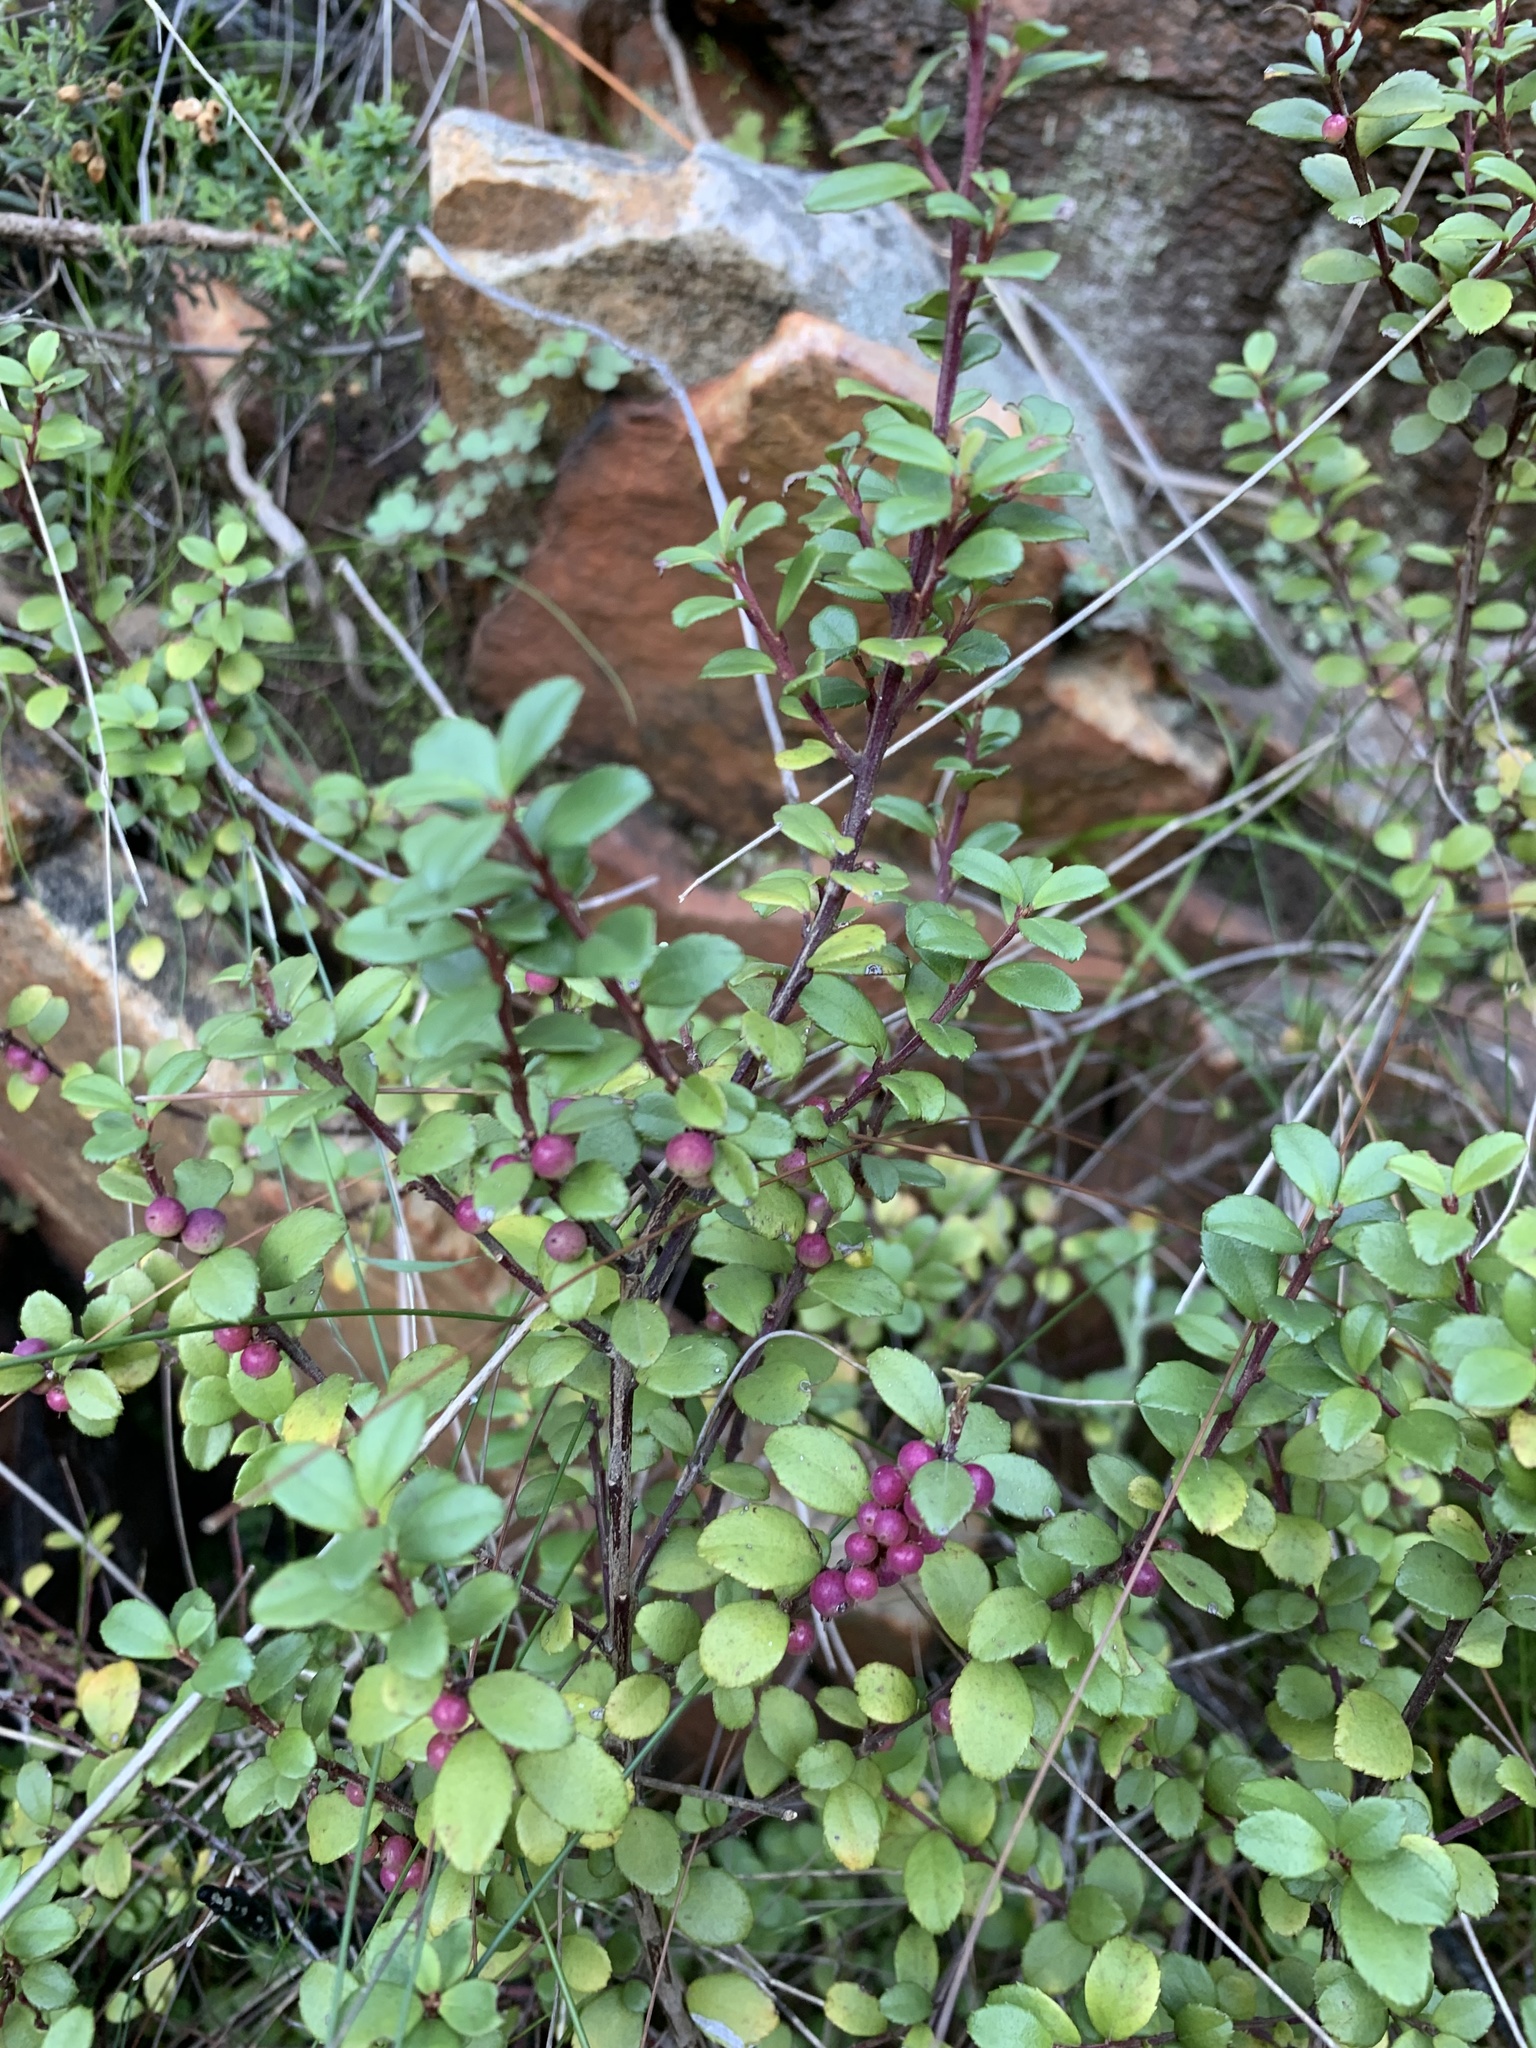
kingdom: Plantae
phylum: Tracheophyta
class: Magnoliopsida
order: Ericales
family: Primulaceae
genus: Myrsine
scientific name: Myrsine africana
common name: African-boxwood
